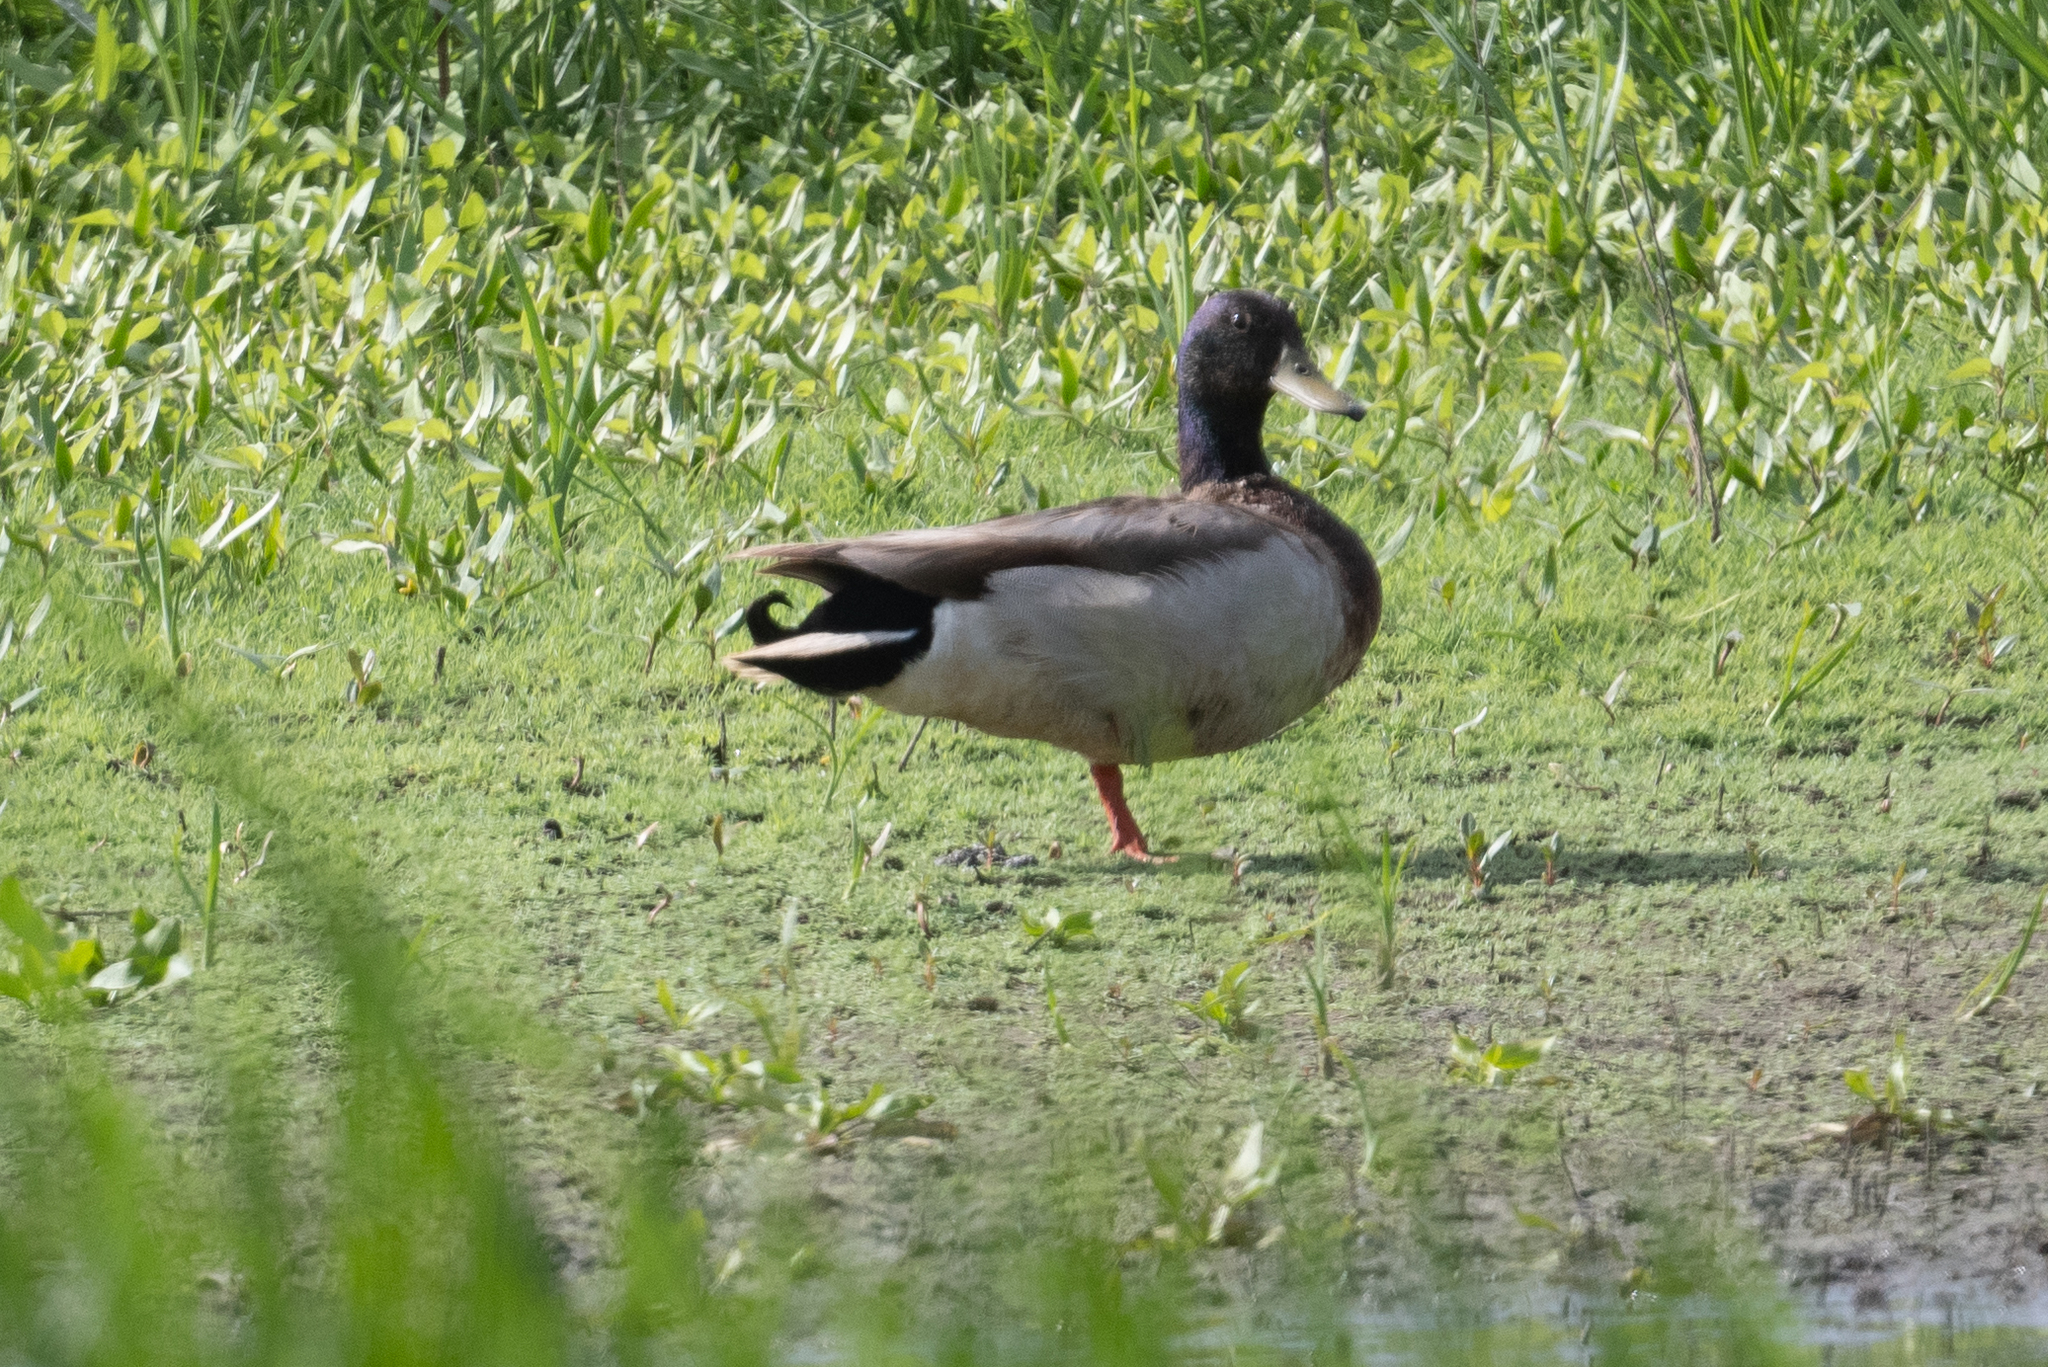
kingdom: Animalia
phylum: Chordata
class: Aves
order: Anseriformes
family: Anatidae
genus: Anas
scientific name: Anas platyrhynchos
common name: Mallard
